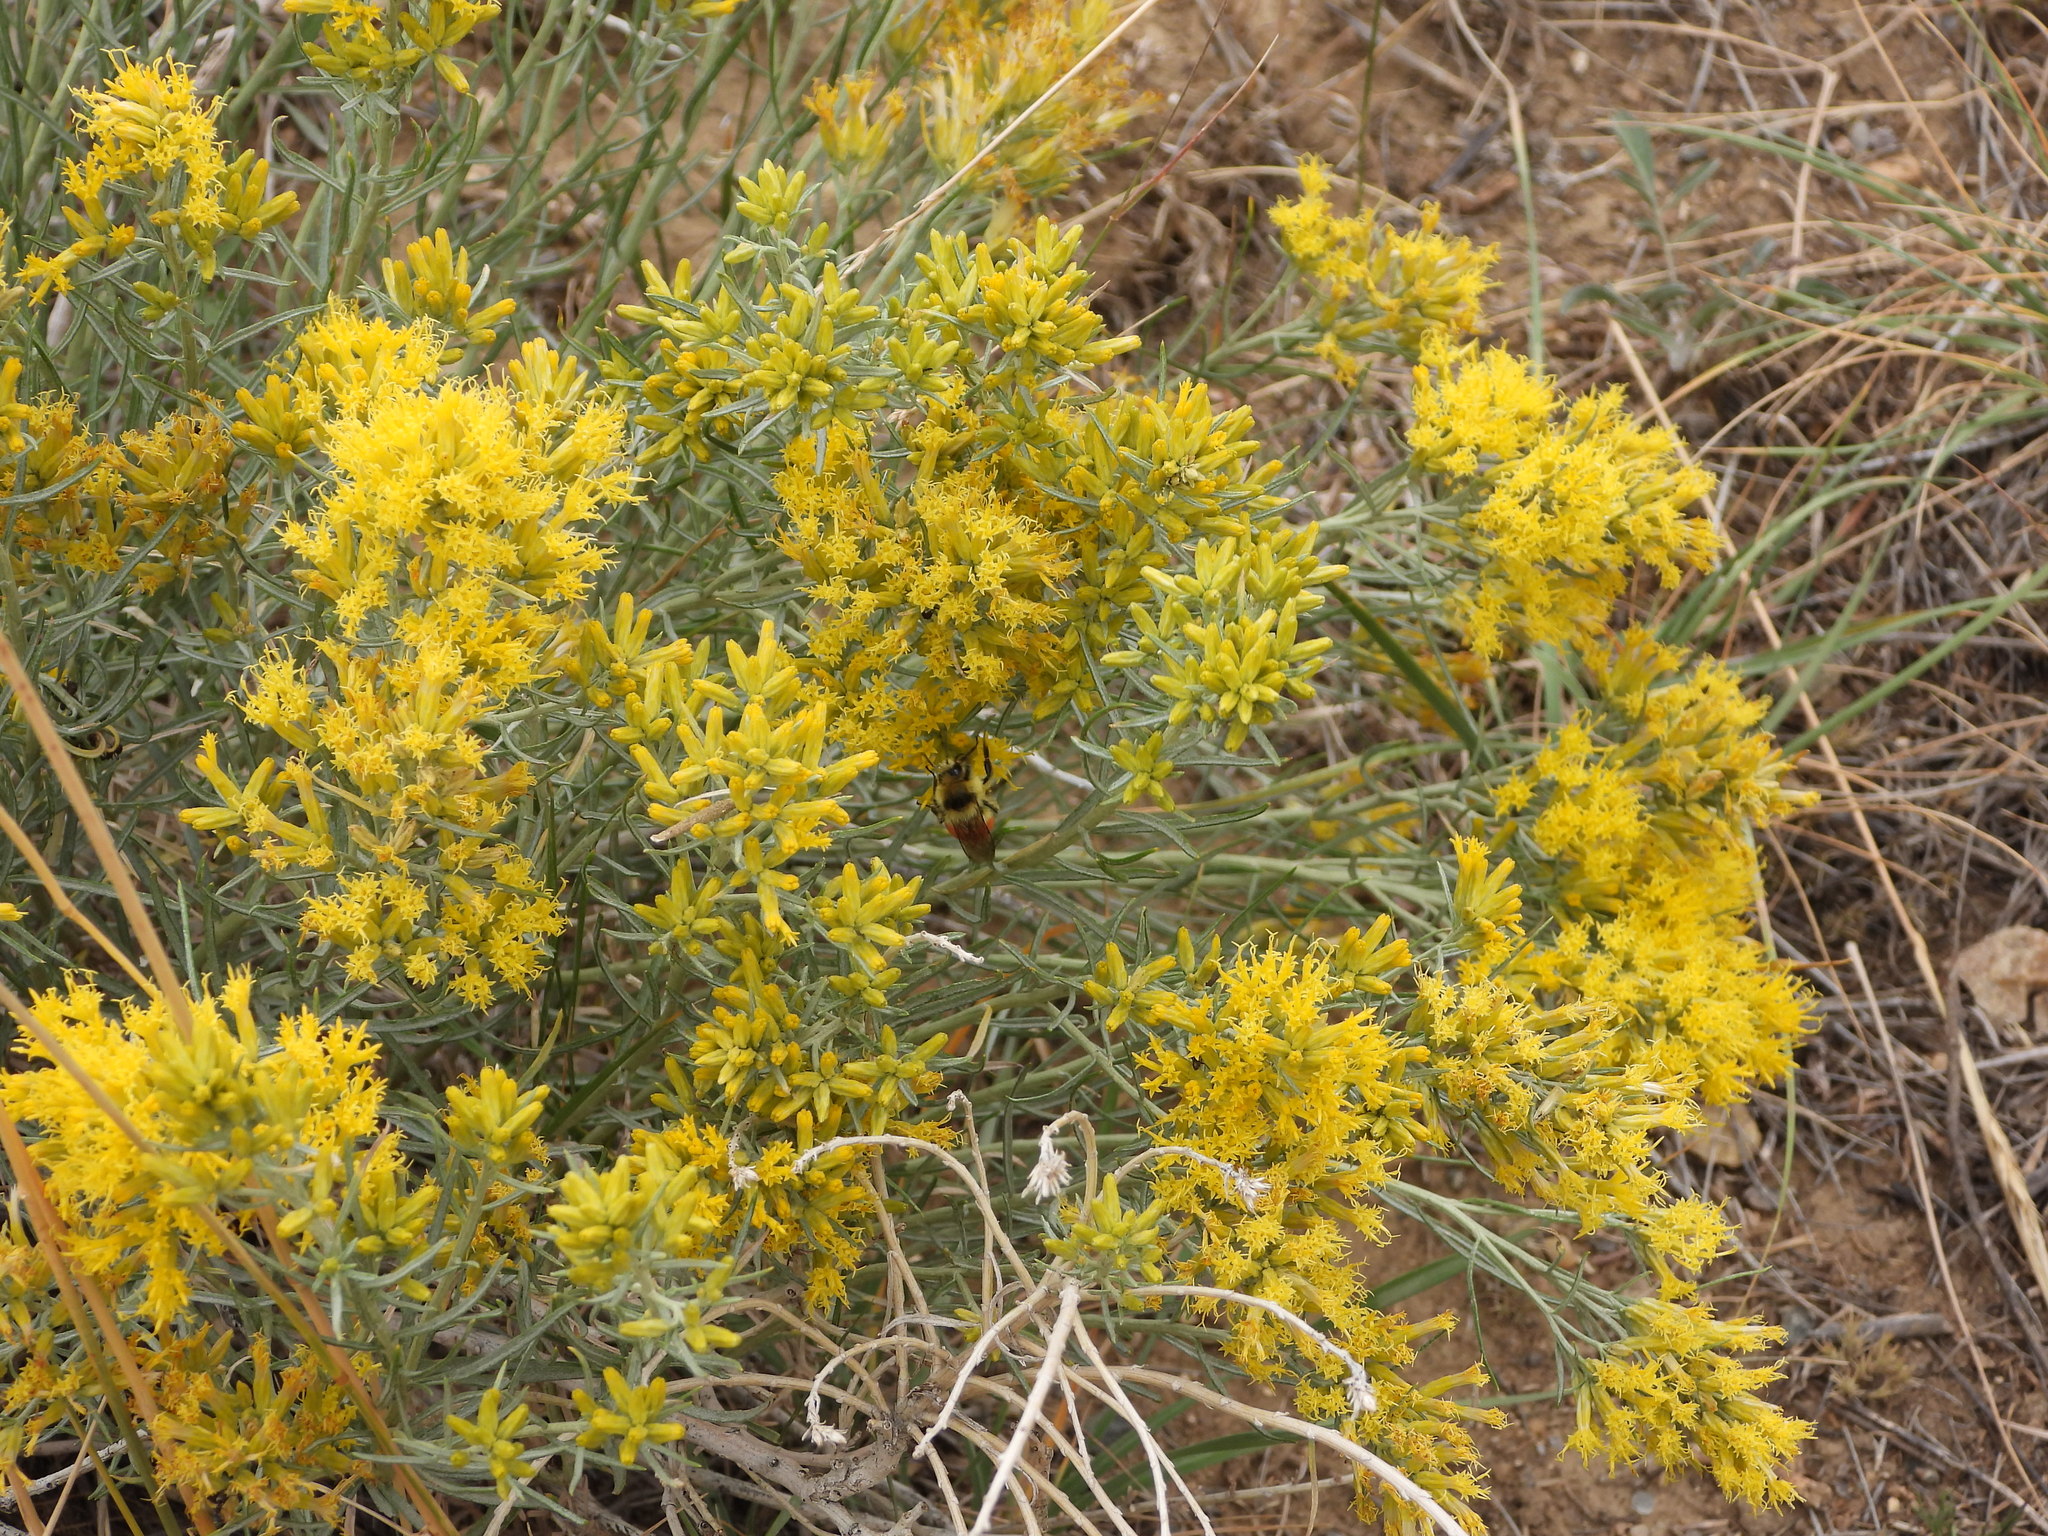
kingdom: Animalia
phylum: Arthropoda
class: Insecta
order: Hymenoptera
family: Apidae
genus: Bombus
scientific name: Bombus huntii
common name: Hunt bumble bee
